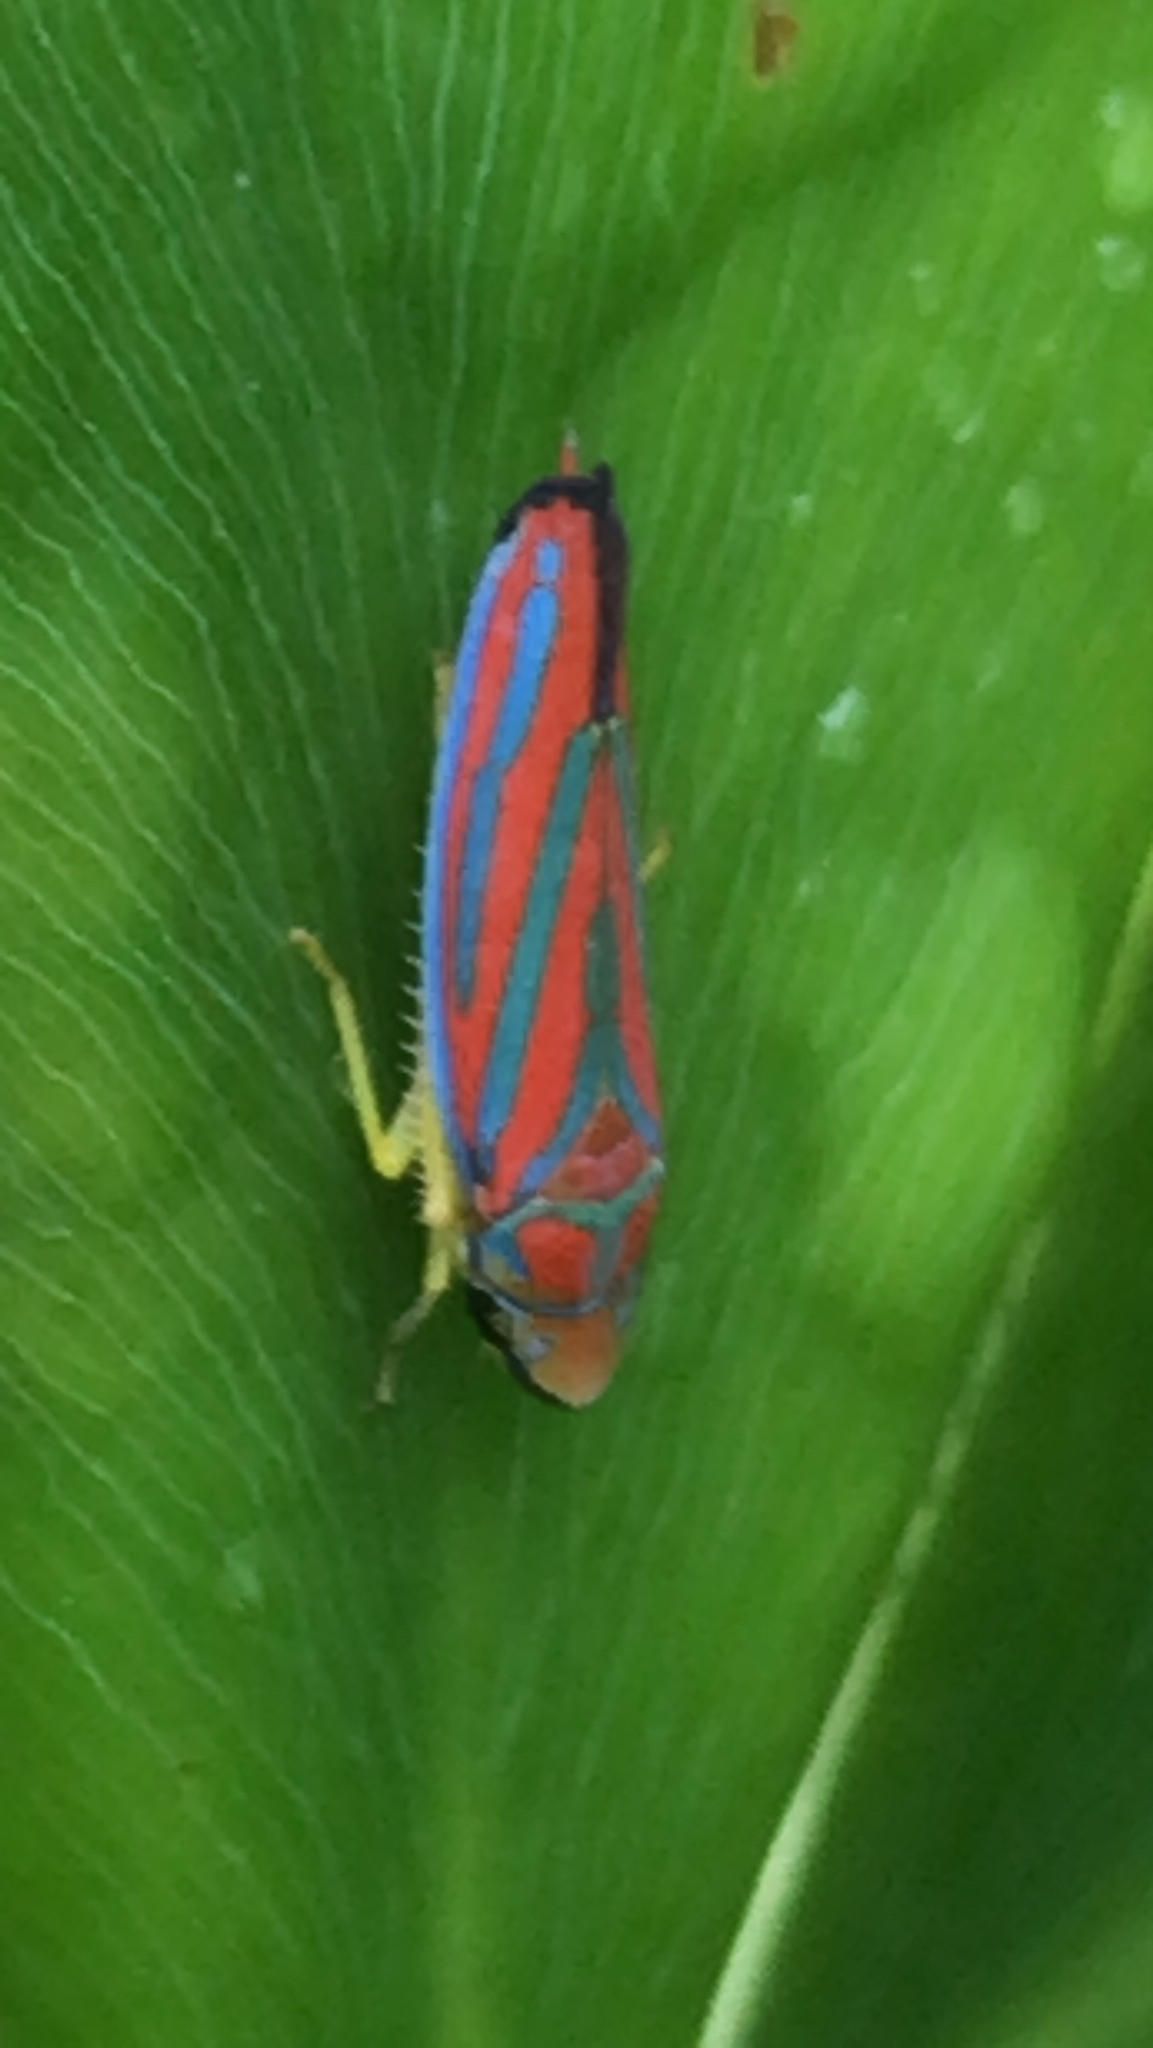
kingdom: Animalia
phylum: Arthropoda
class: Insecta
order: Hemiptera
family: Cicadellidae
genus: Graphocephala
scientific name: Graphocephala coccinea
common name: Candy-striped leafhopper
